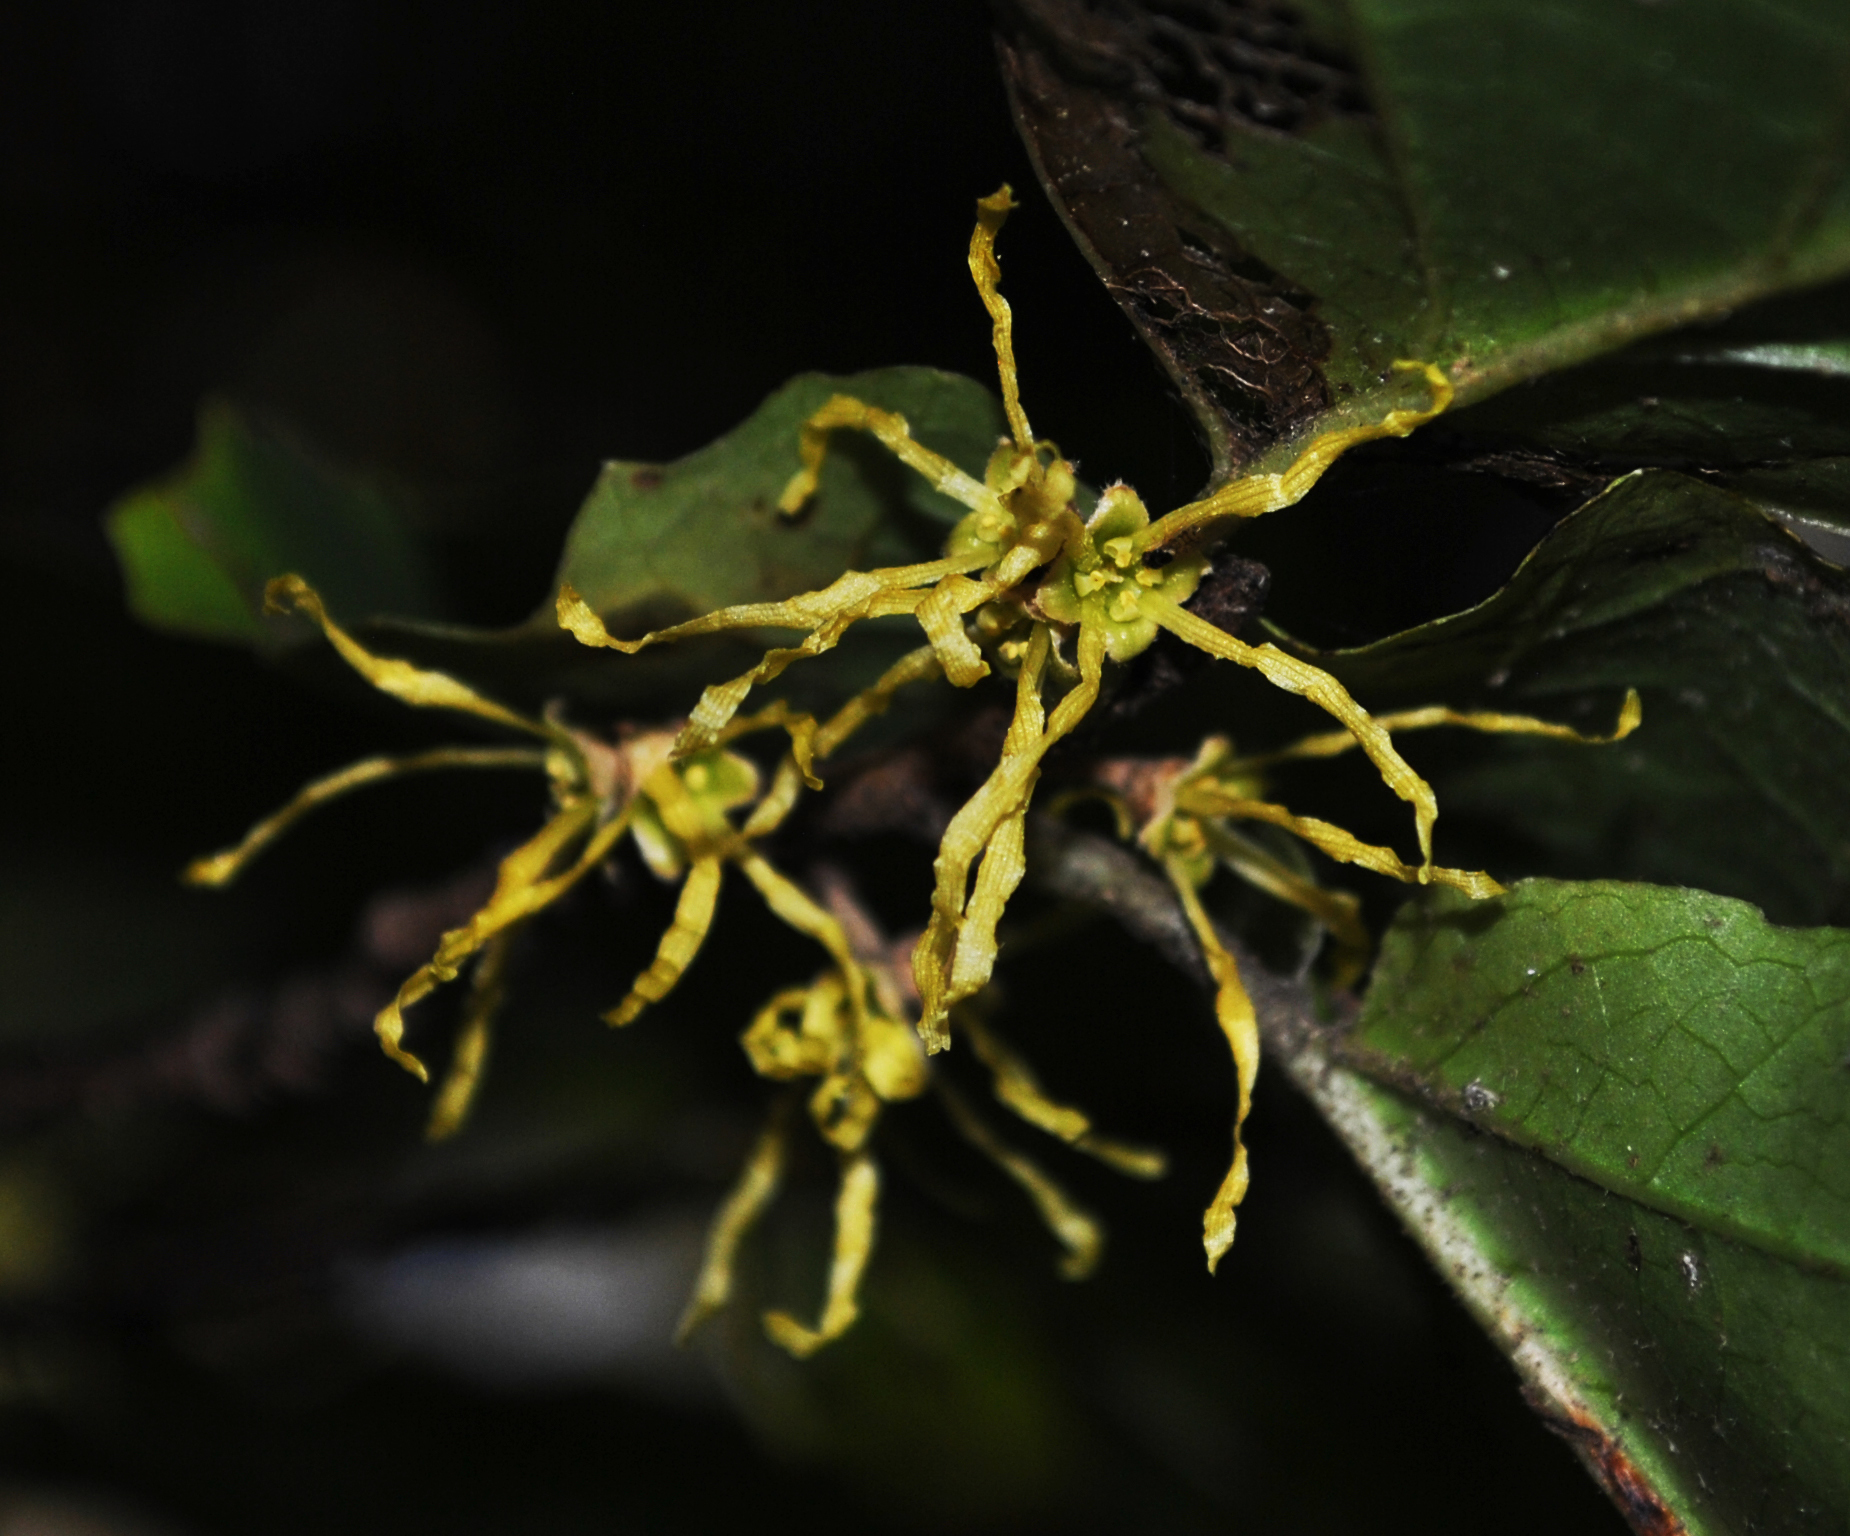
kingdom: Plantae
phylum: Tracheophyta
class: Magnoliopsida
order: Saxifragales
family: Hamamelidaceae
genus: Hamamelis
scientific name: Hamamelis virginiana
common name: Witch-hazel
